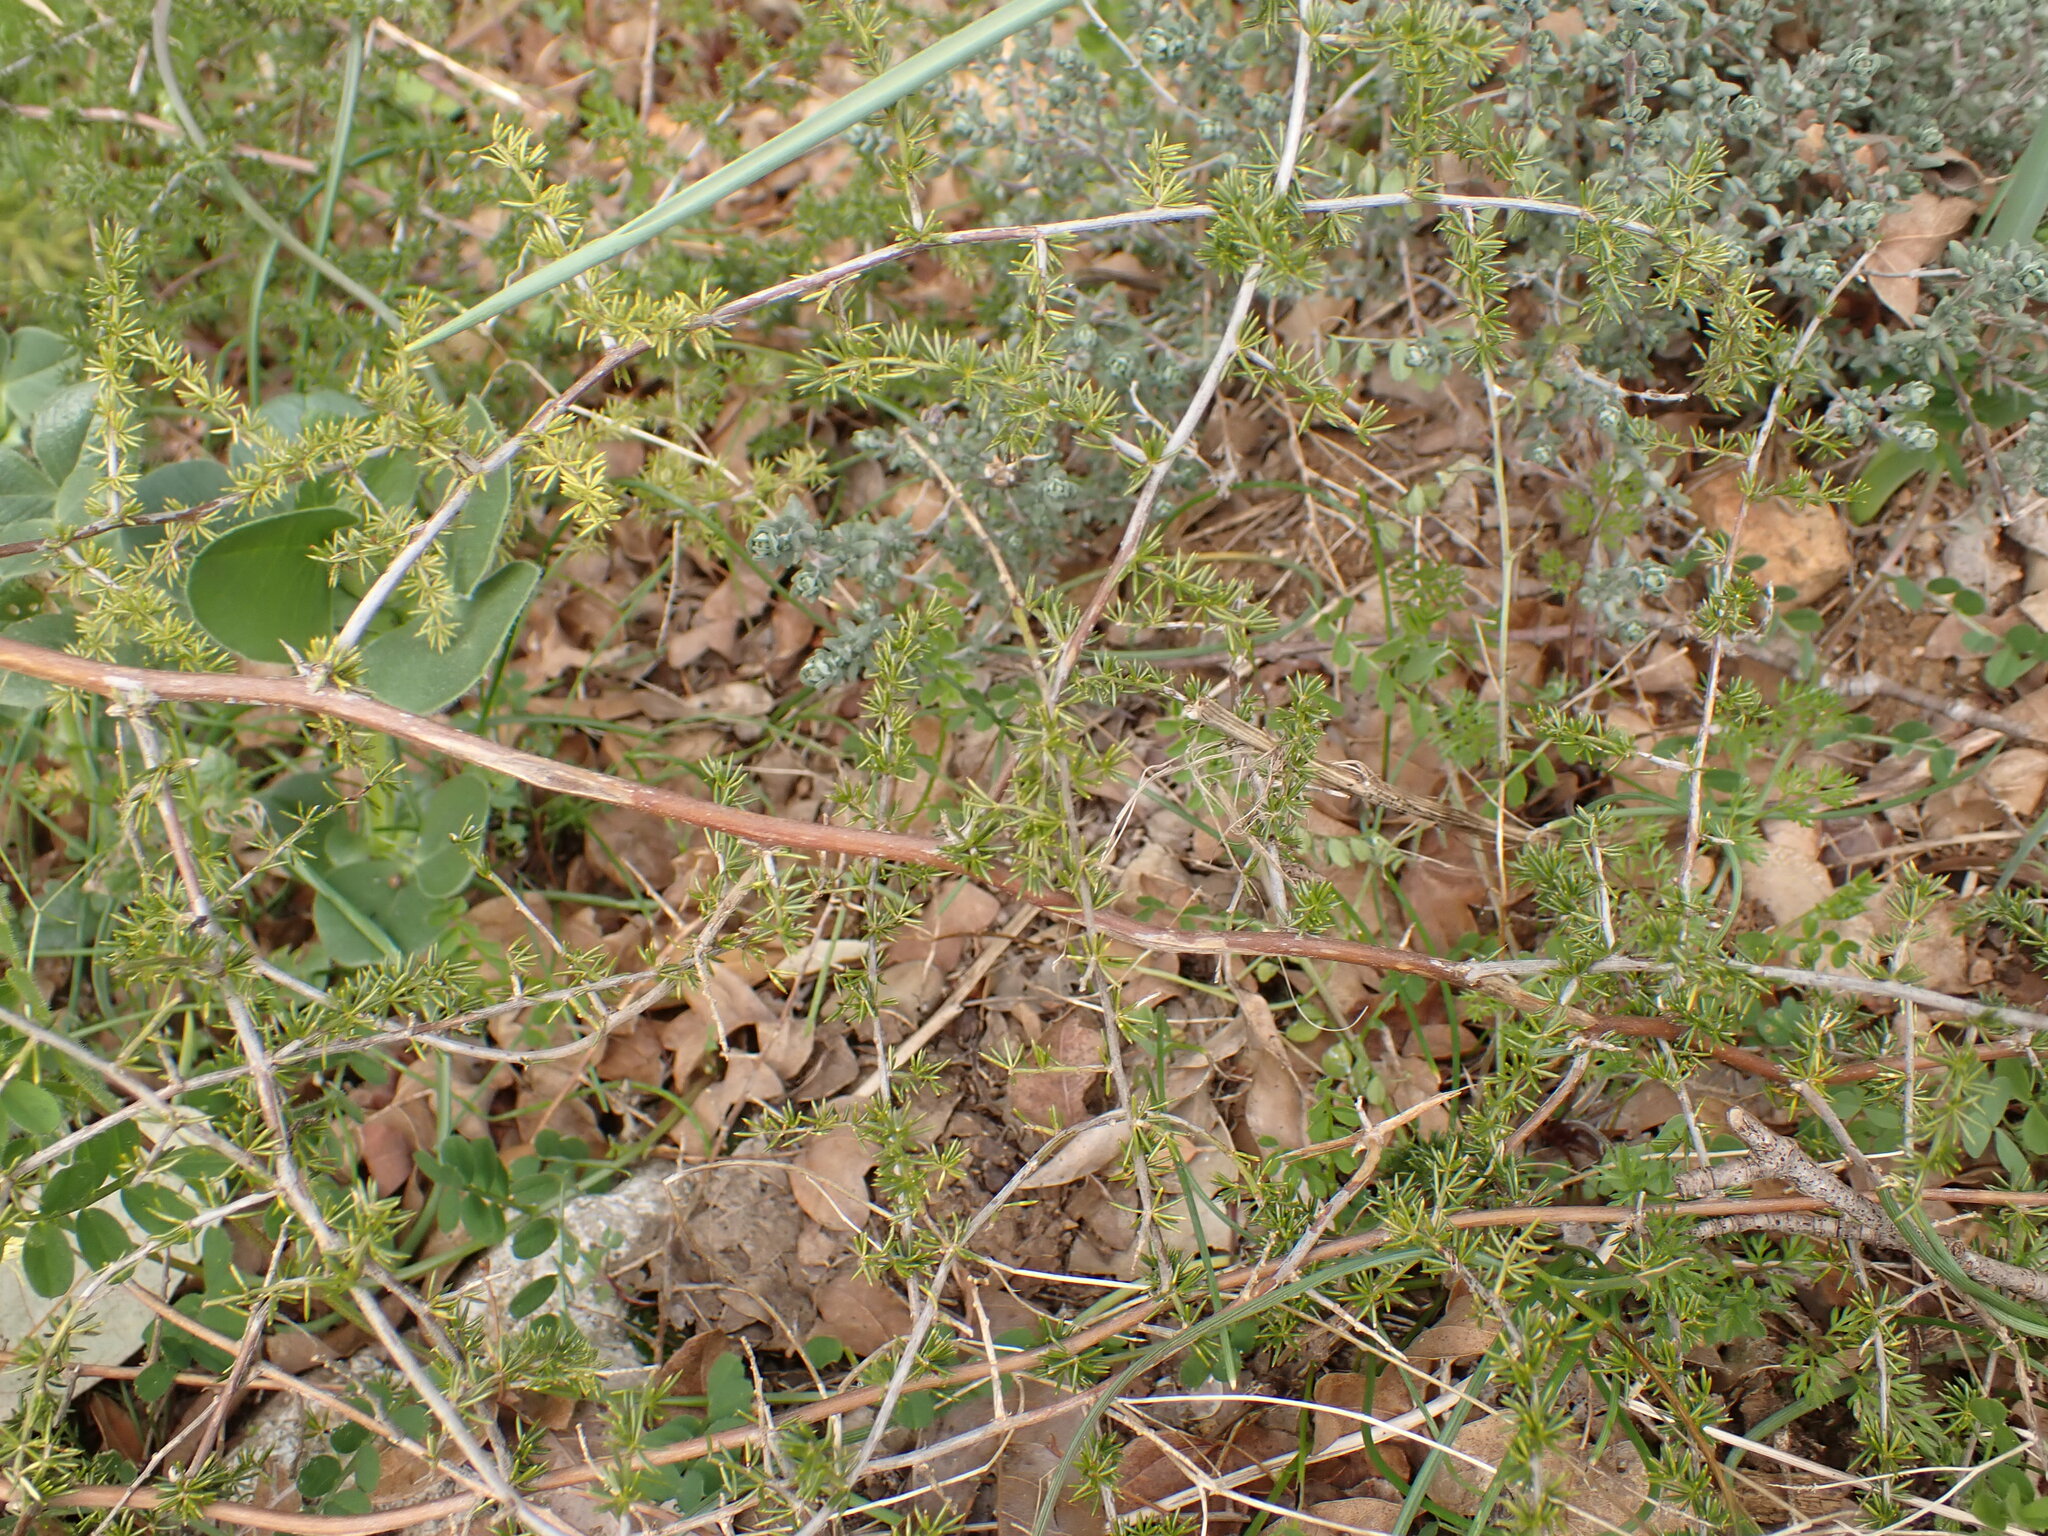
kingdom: Plantae
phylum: Tracheophyta
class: Liliopsida
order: Asparagales
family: Asparagaceae
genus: Asparagus
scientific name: Asparagus acutifolius
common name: Wild asparagus
